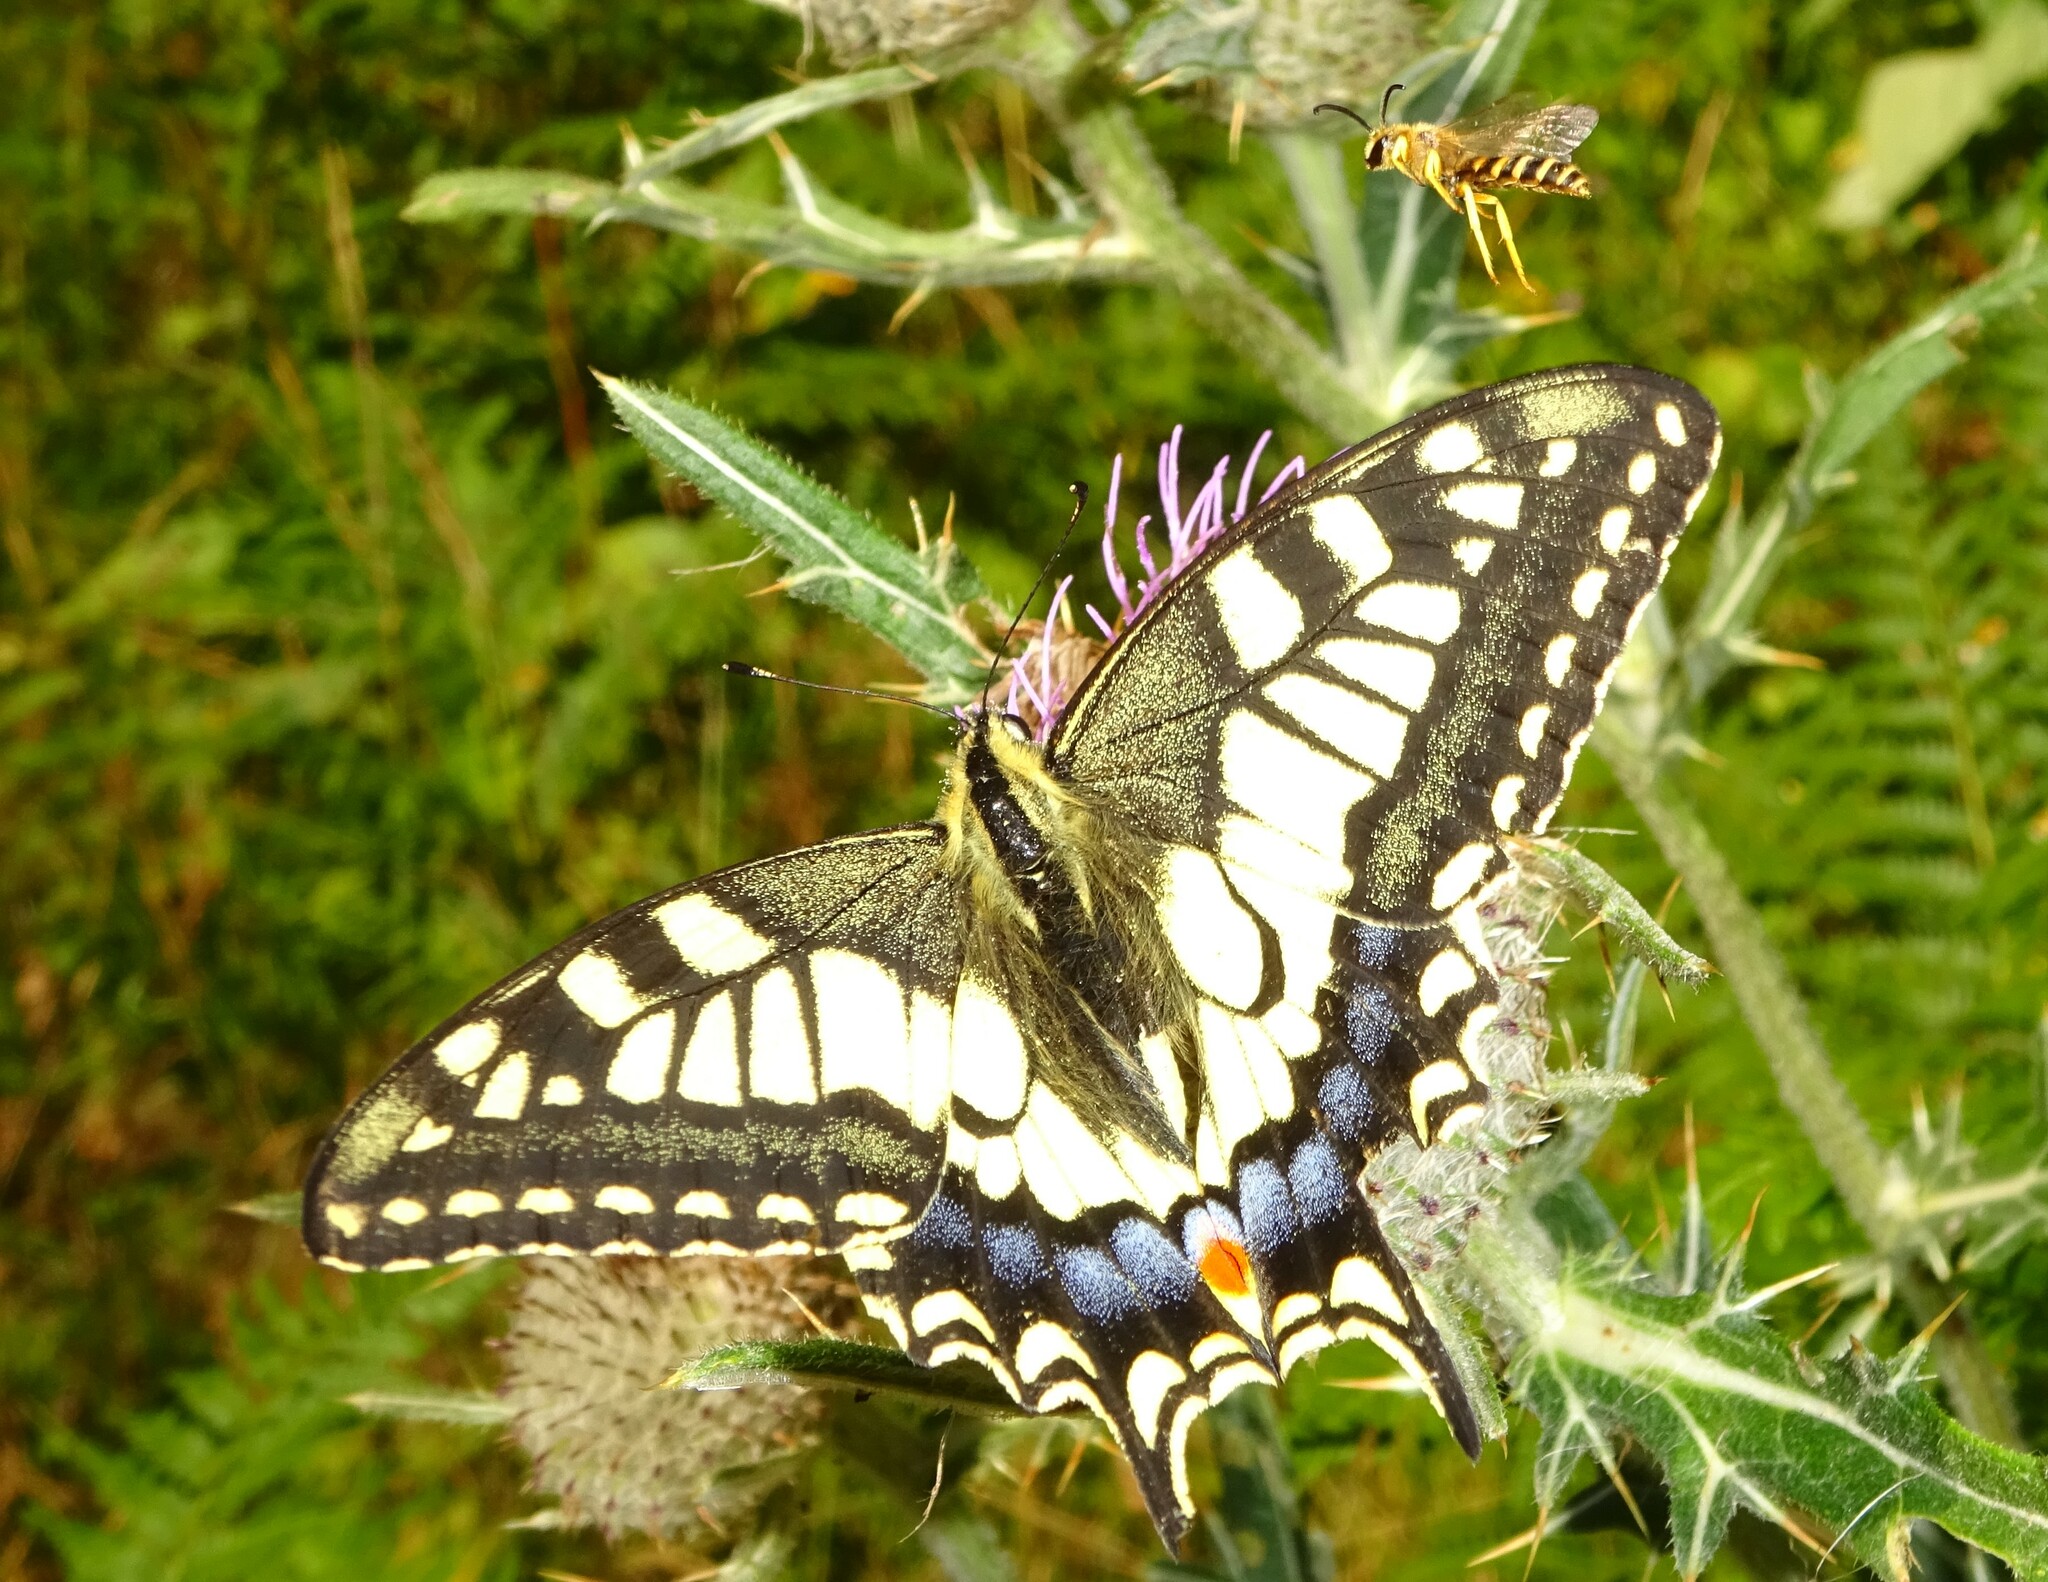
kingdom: Animalia
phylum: Arthropoda
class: Insecta
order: Lepidoptera
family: Papilionidae
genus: Papilio
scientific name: Papilio machaon
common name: Swallowtail
